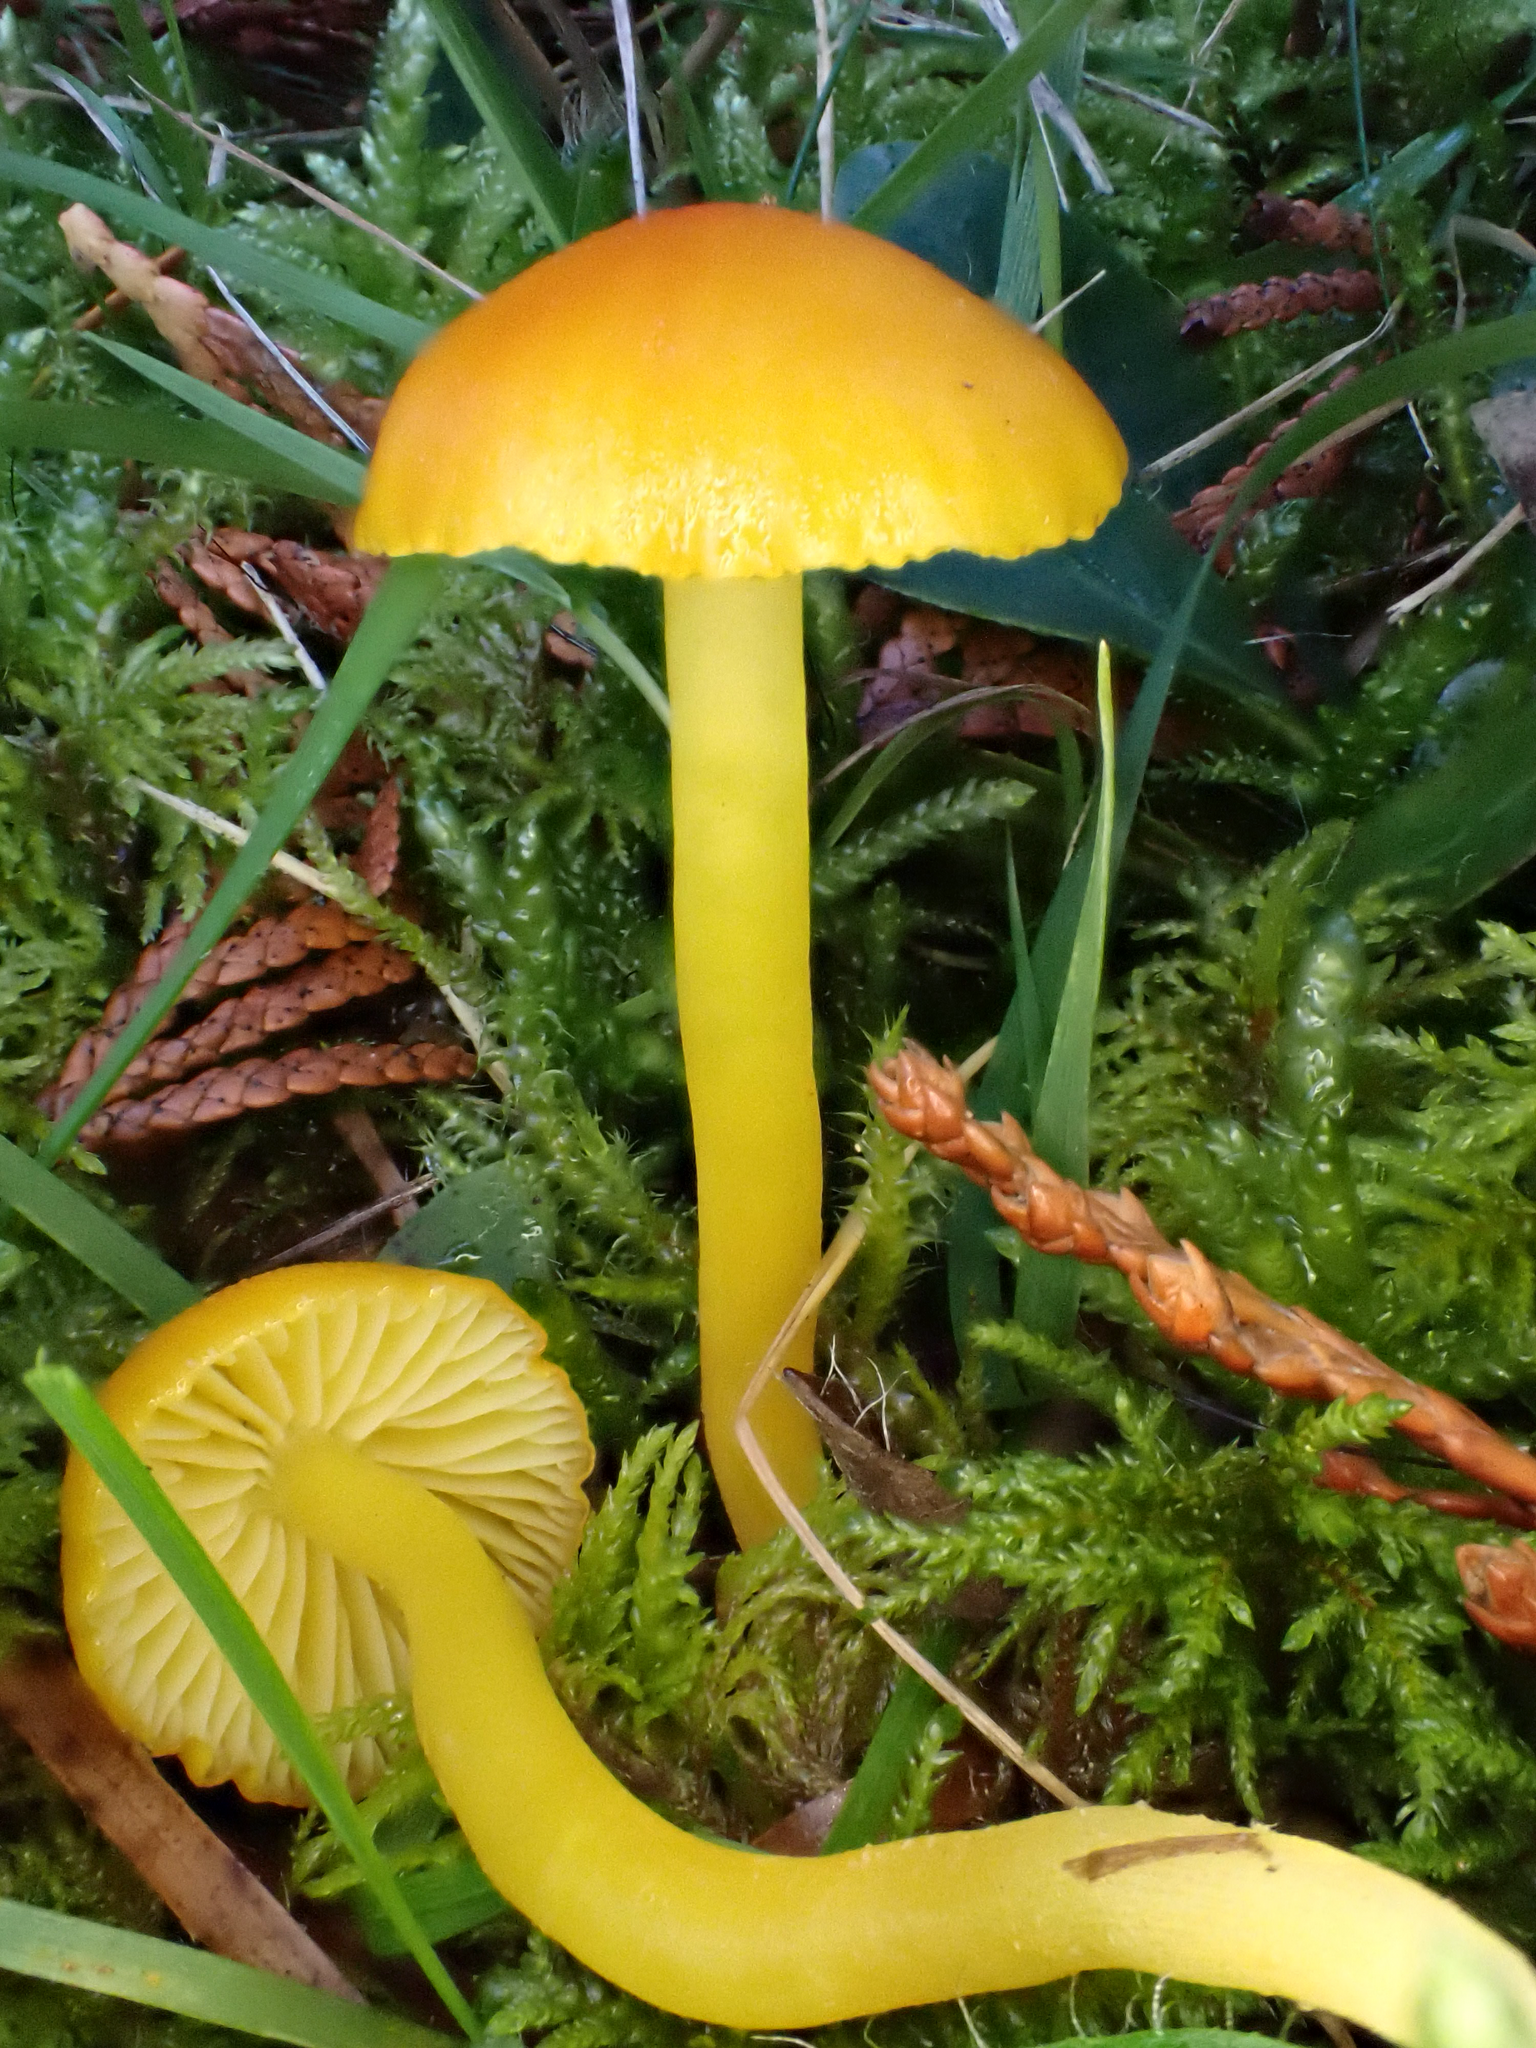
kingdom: Fungi
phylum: Basidiomycota
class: Agaricomycetes
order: Agaricales
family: Hygrophoraceae
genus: Hygrocybe
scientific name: Hygrocybe ceracea
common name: Butter waxcap
